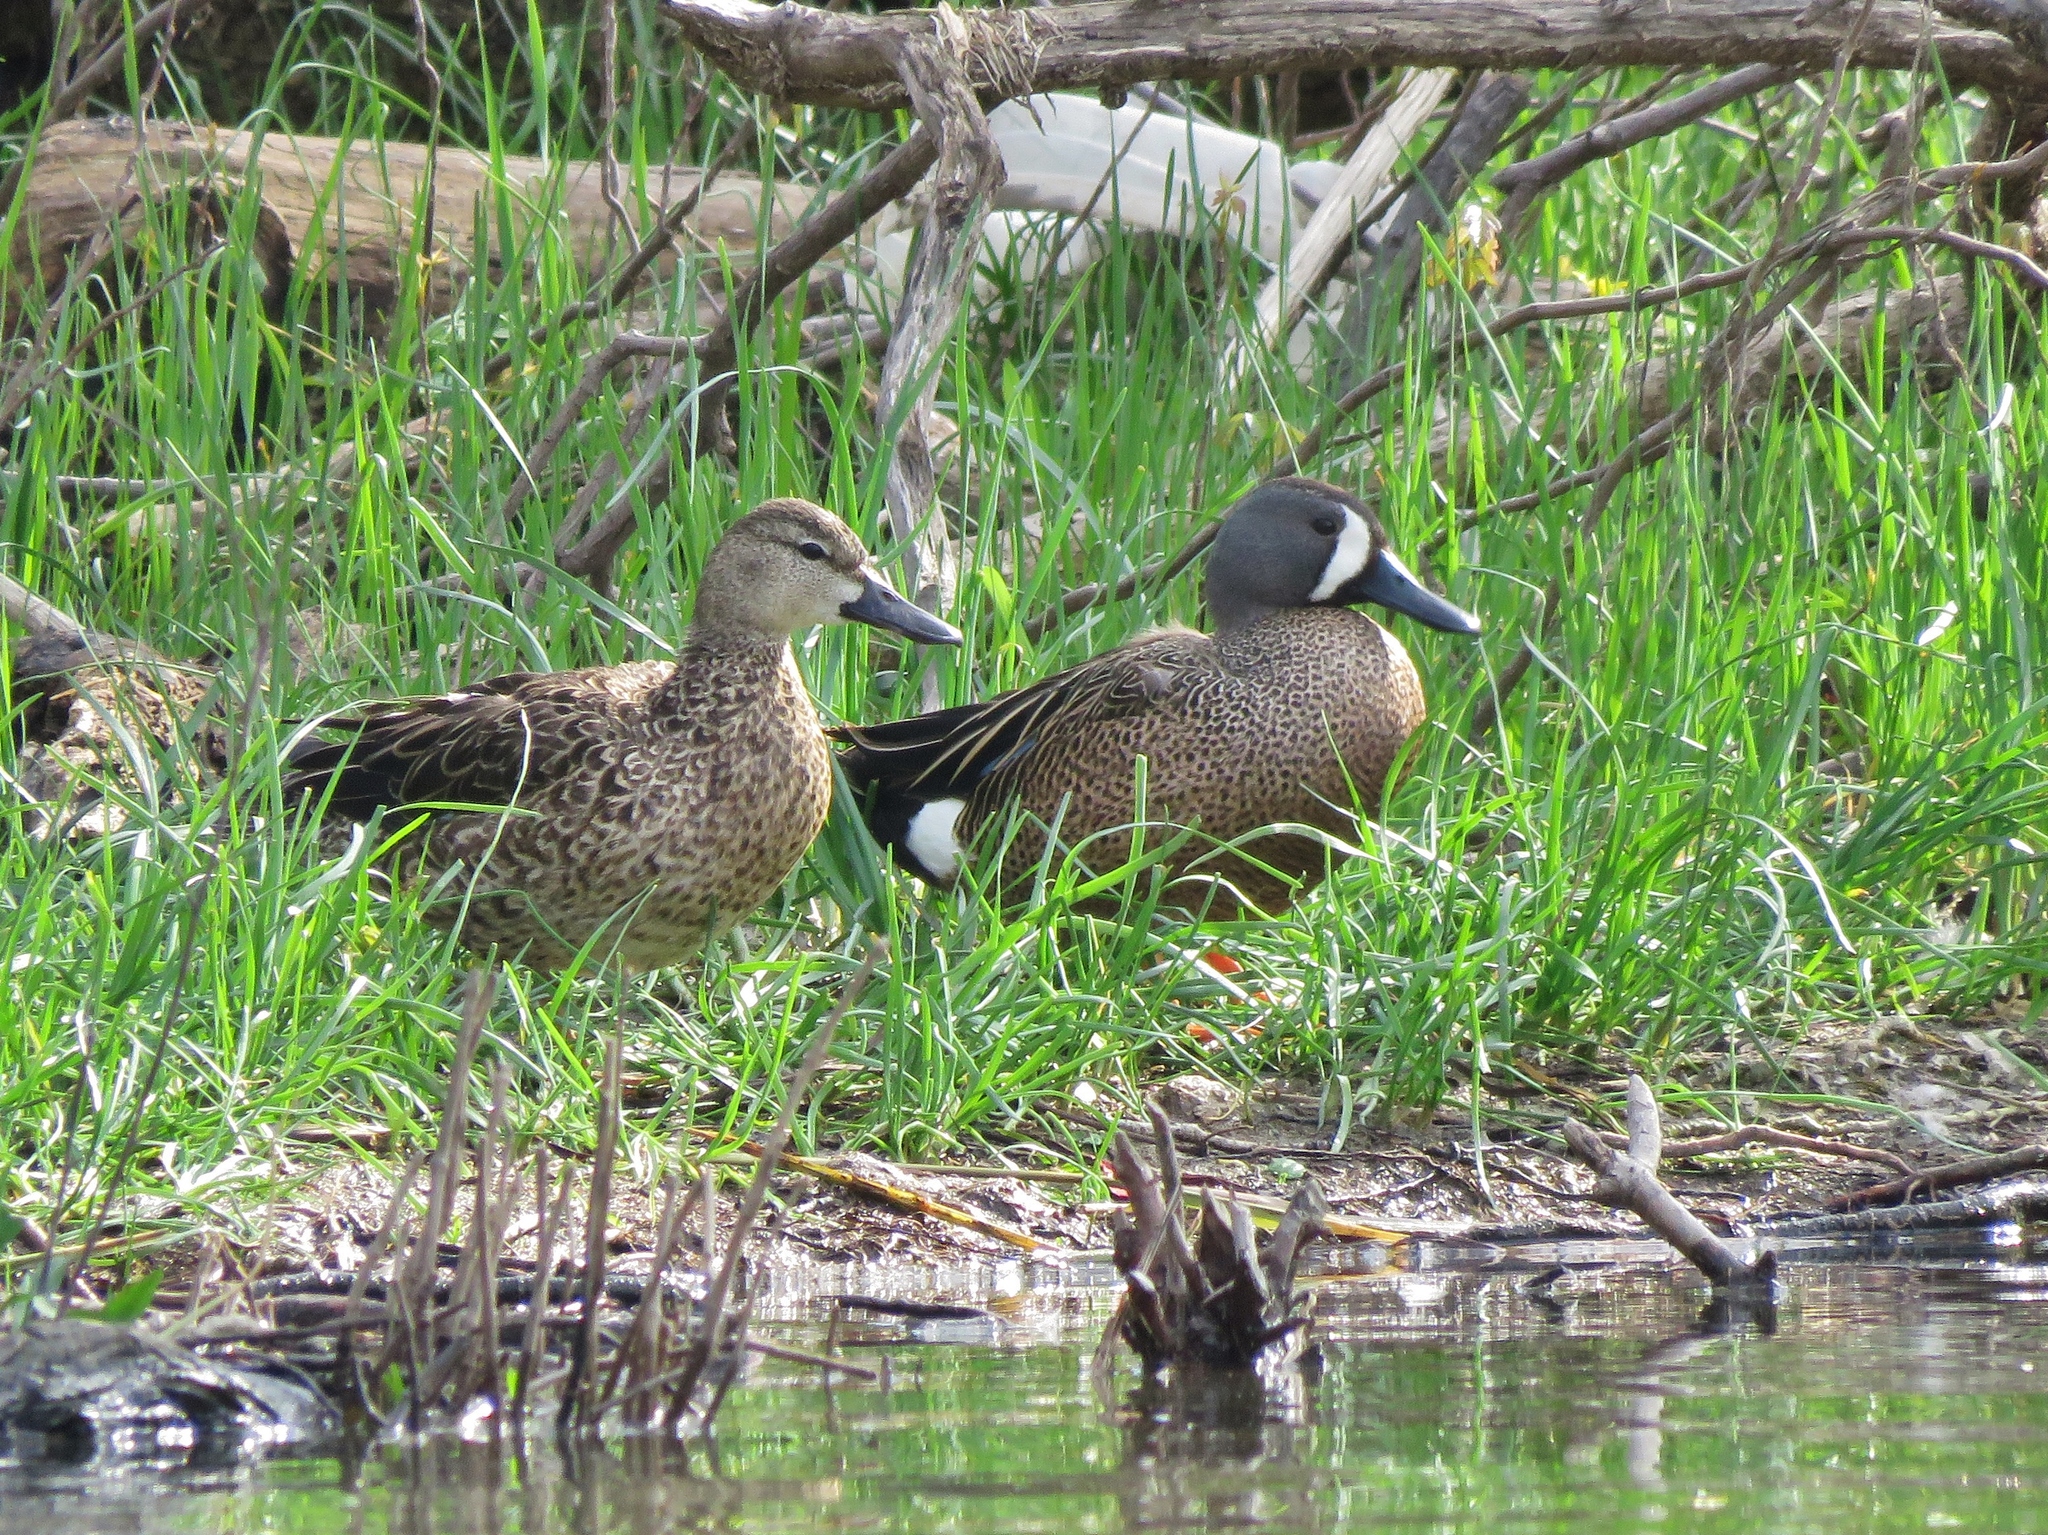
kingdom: Animalia
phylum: Chordata
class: Aves
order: Anseriformes
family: Anatidae
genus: Spatula
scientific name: Spatula discors
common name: Blue-winged teal
